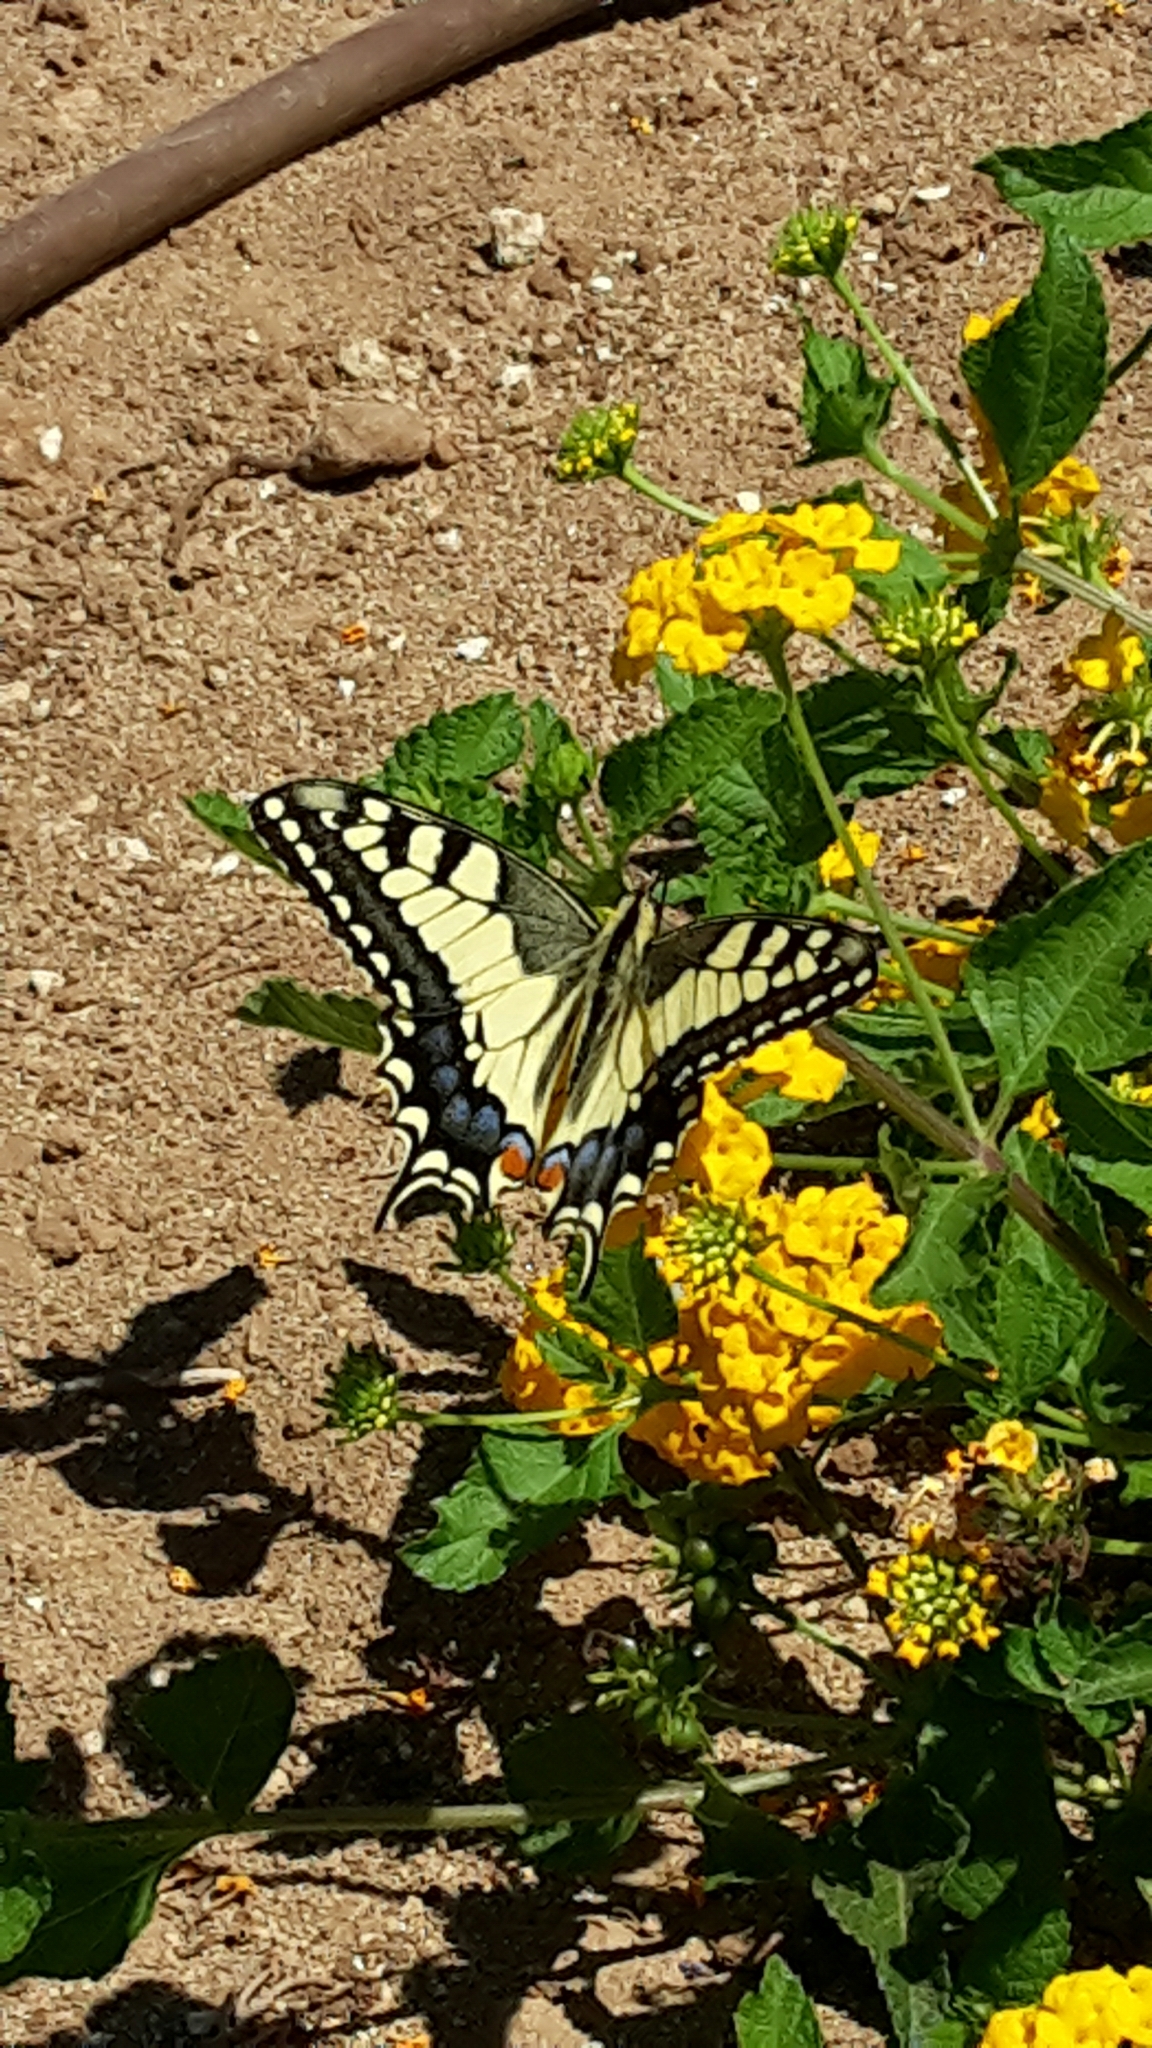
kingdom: Animalia
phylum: Arthropoda
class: Insecta
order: Lepidoptera
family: Papilionidae
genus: Papilio
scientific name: Papilio machaon
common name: Swallowtail
